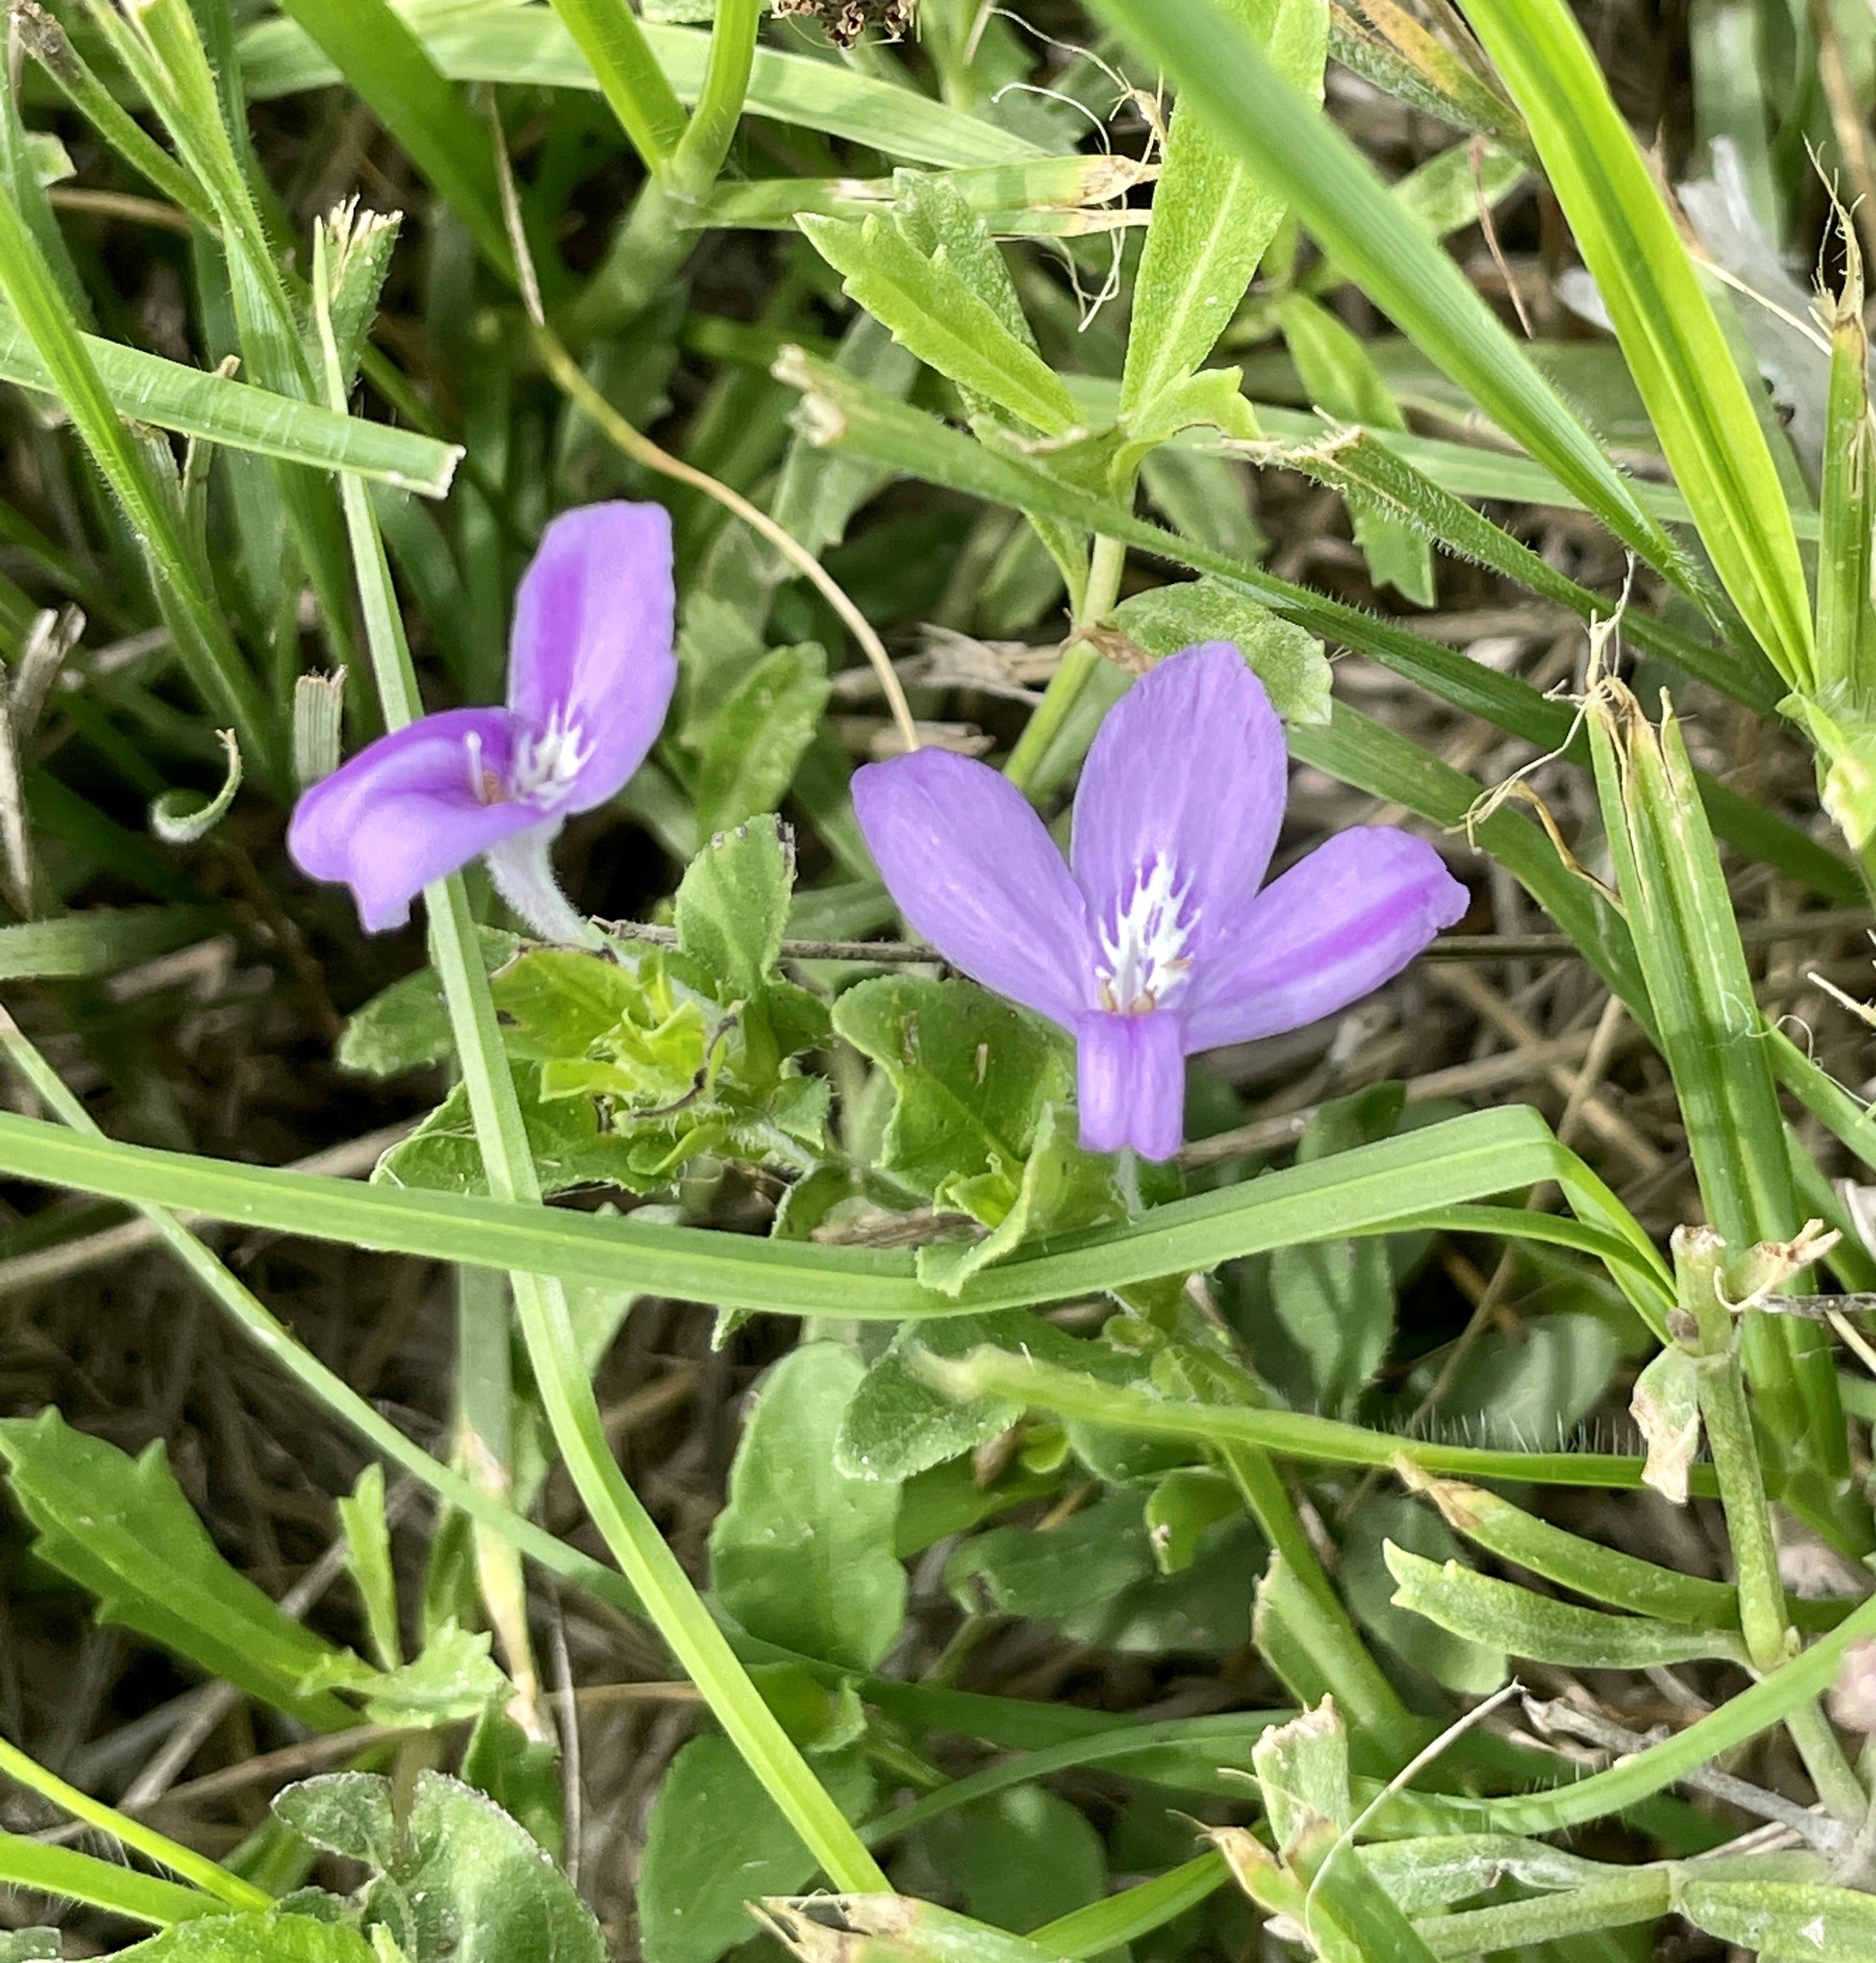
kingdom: Plantae
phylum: Tracheophyta
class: Magnoliopsida
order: Lamiales
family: Acanthaceae
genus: Justicia
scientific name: Justicia pilosella
